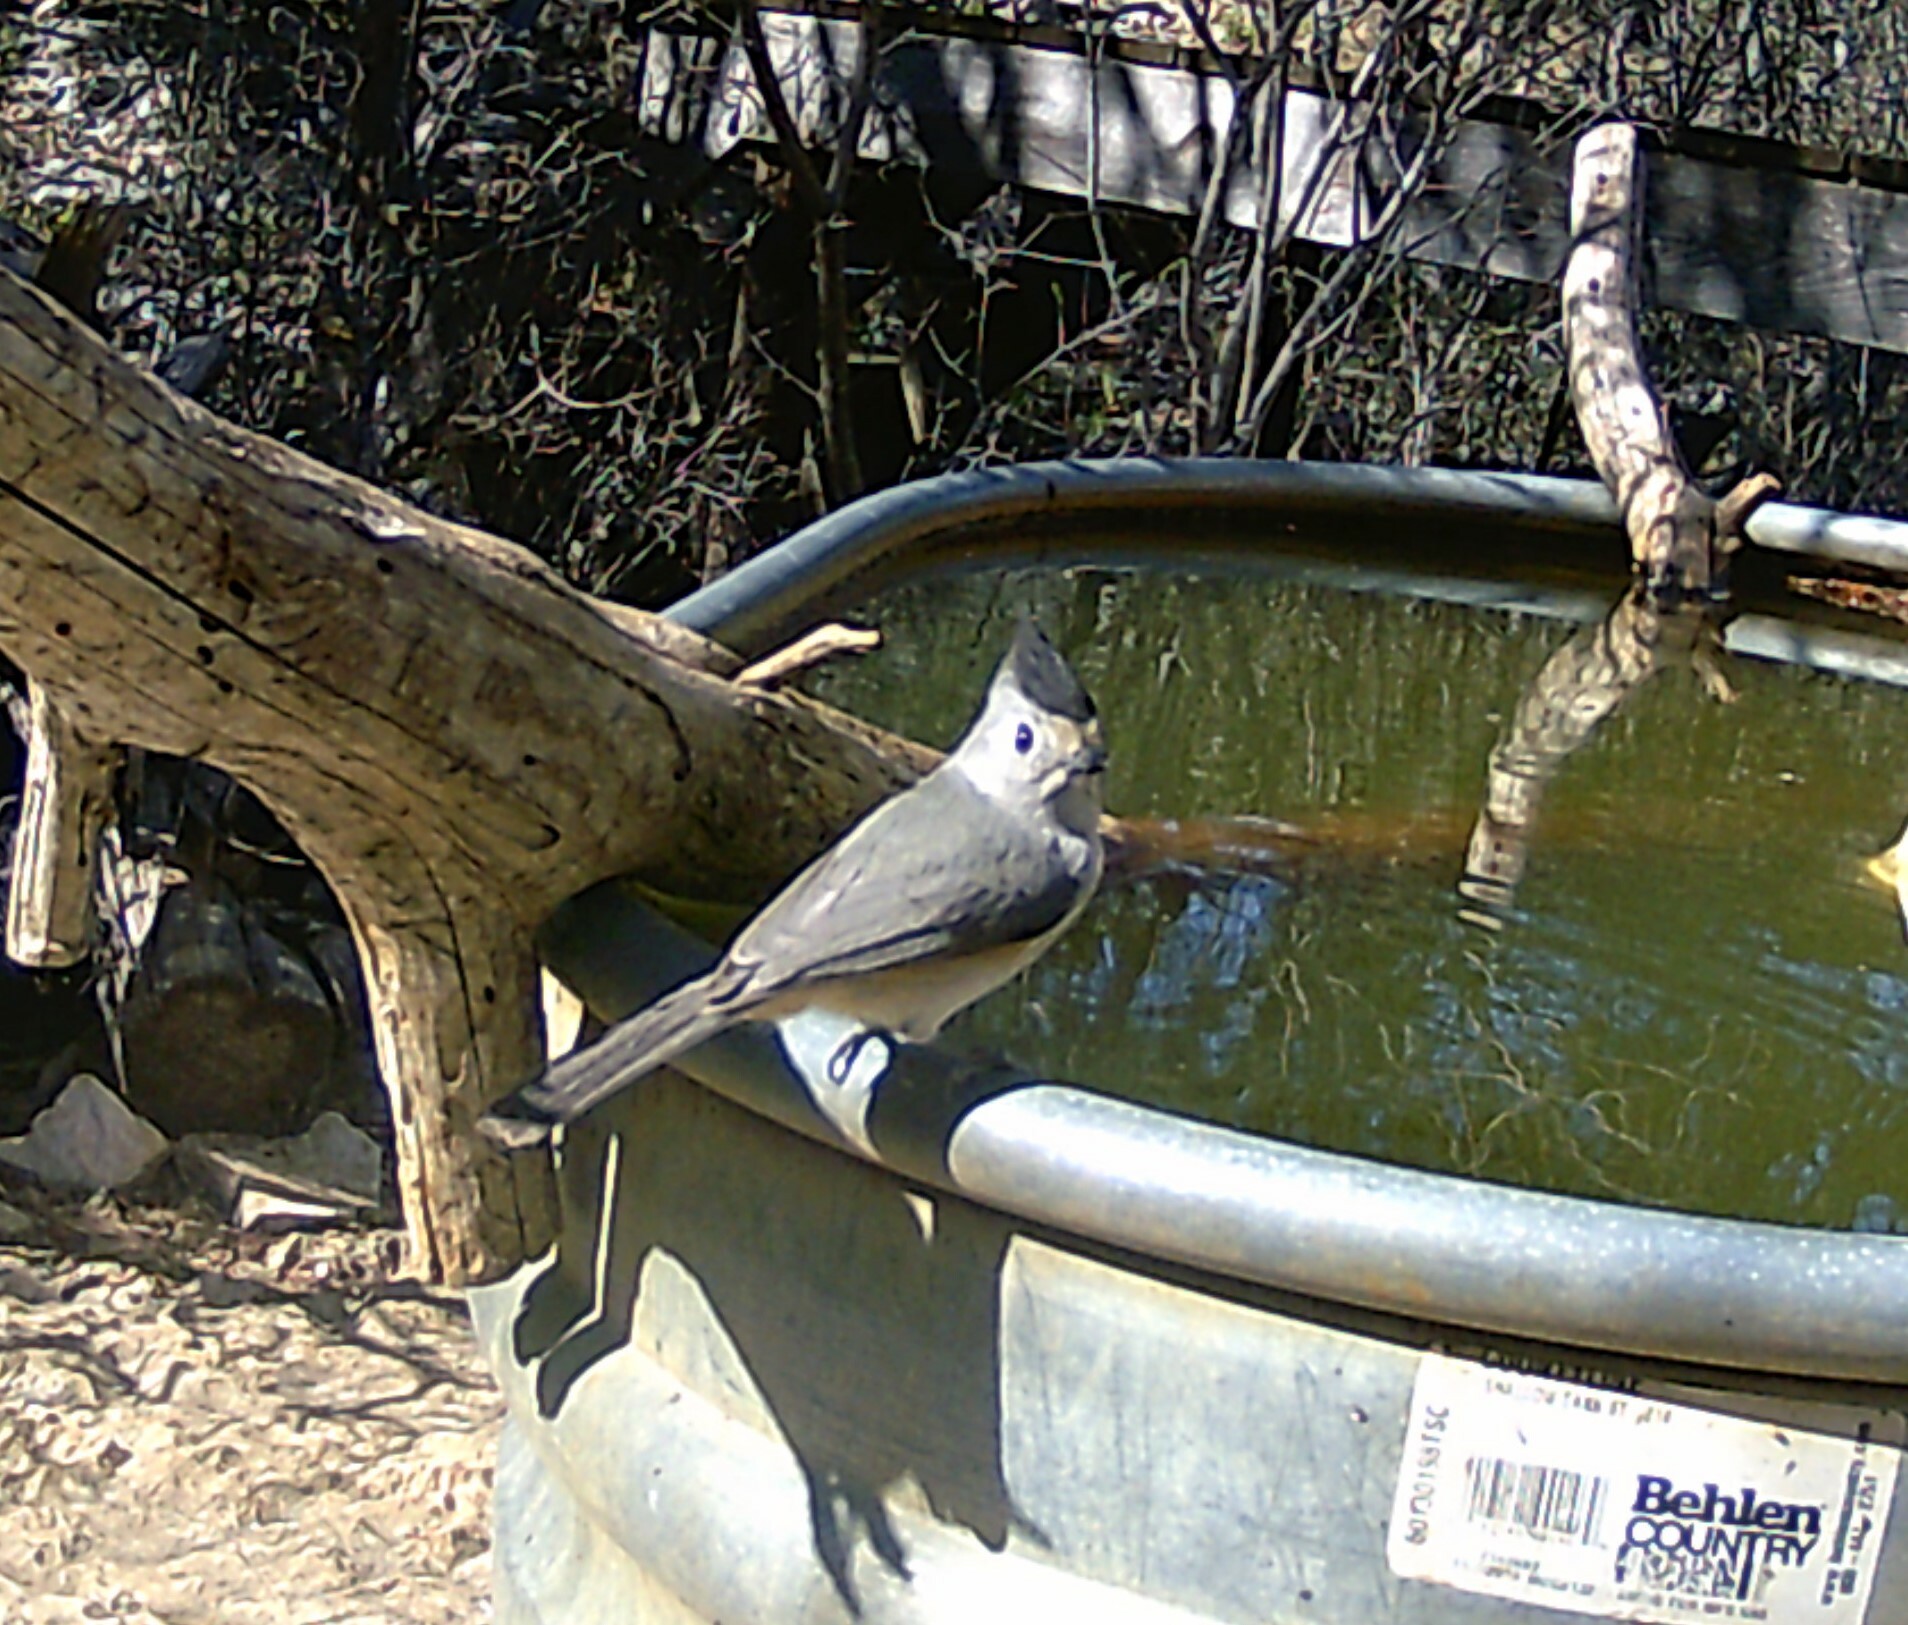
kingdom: Animalia
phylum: Chordata
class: Aves
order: Passeriformes
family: Paridae
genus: Baeolophus
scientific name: Baeolophus atricristatus
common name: Black-crested titmouse
